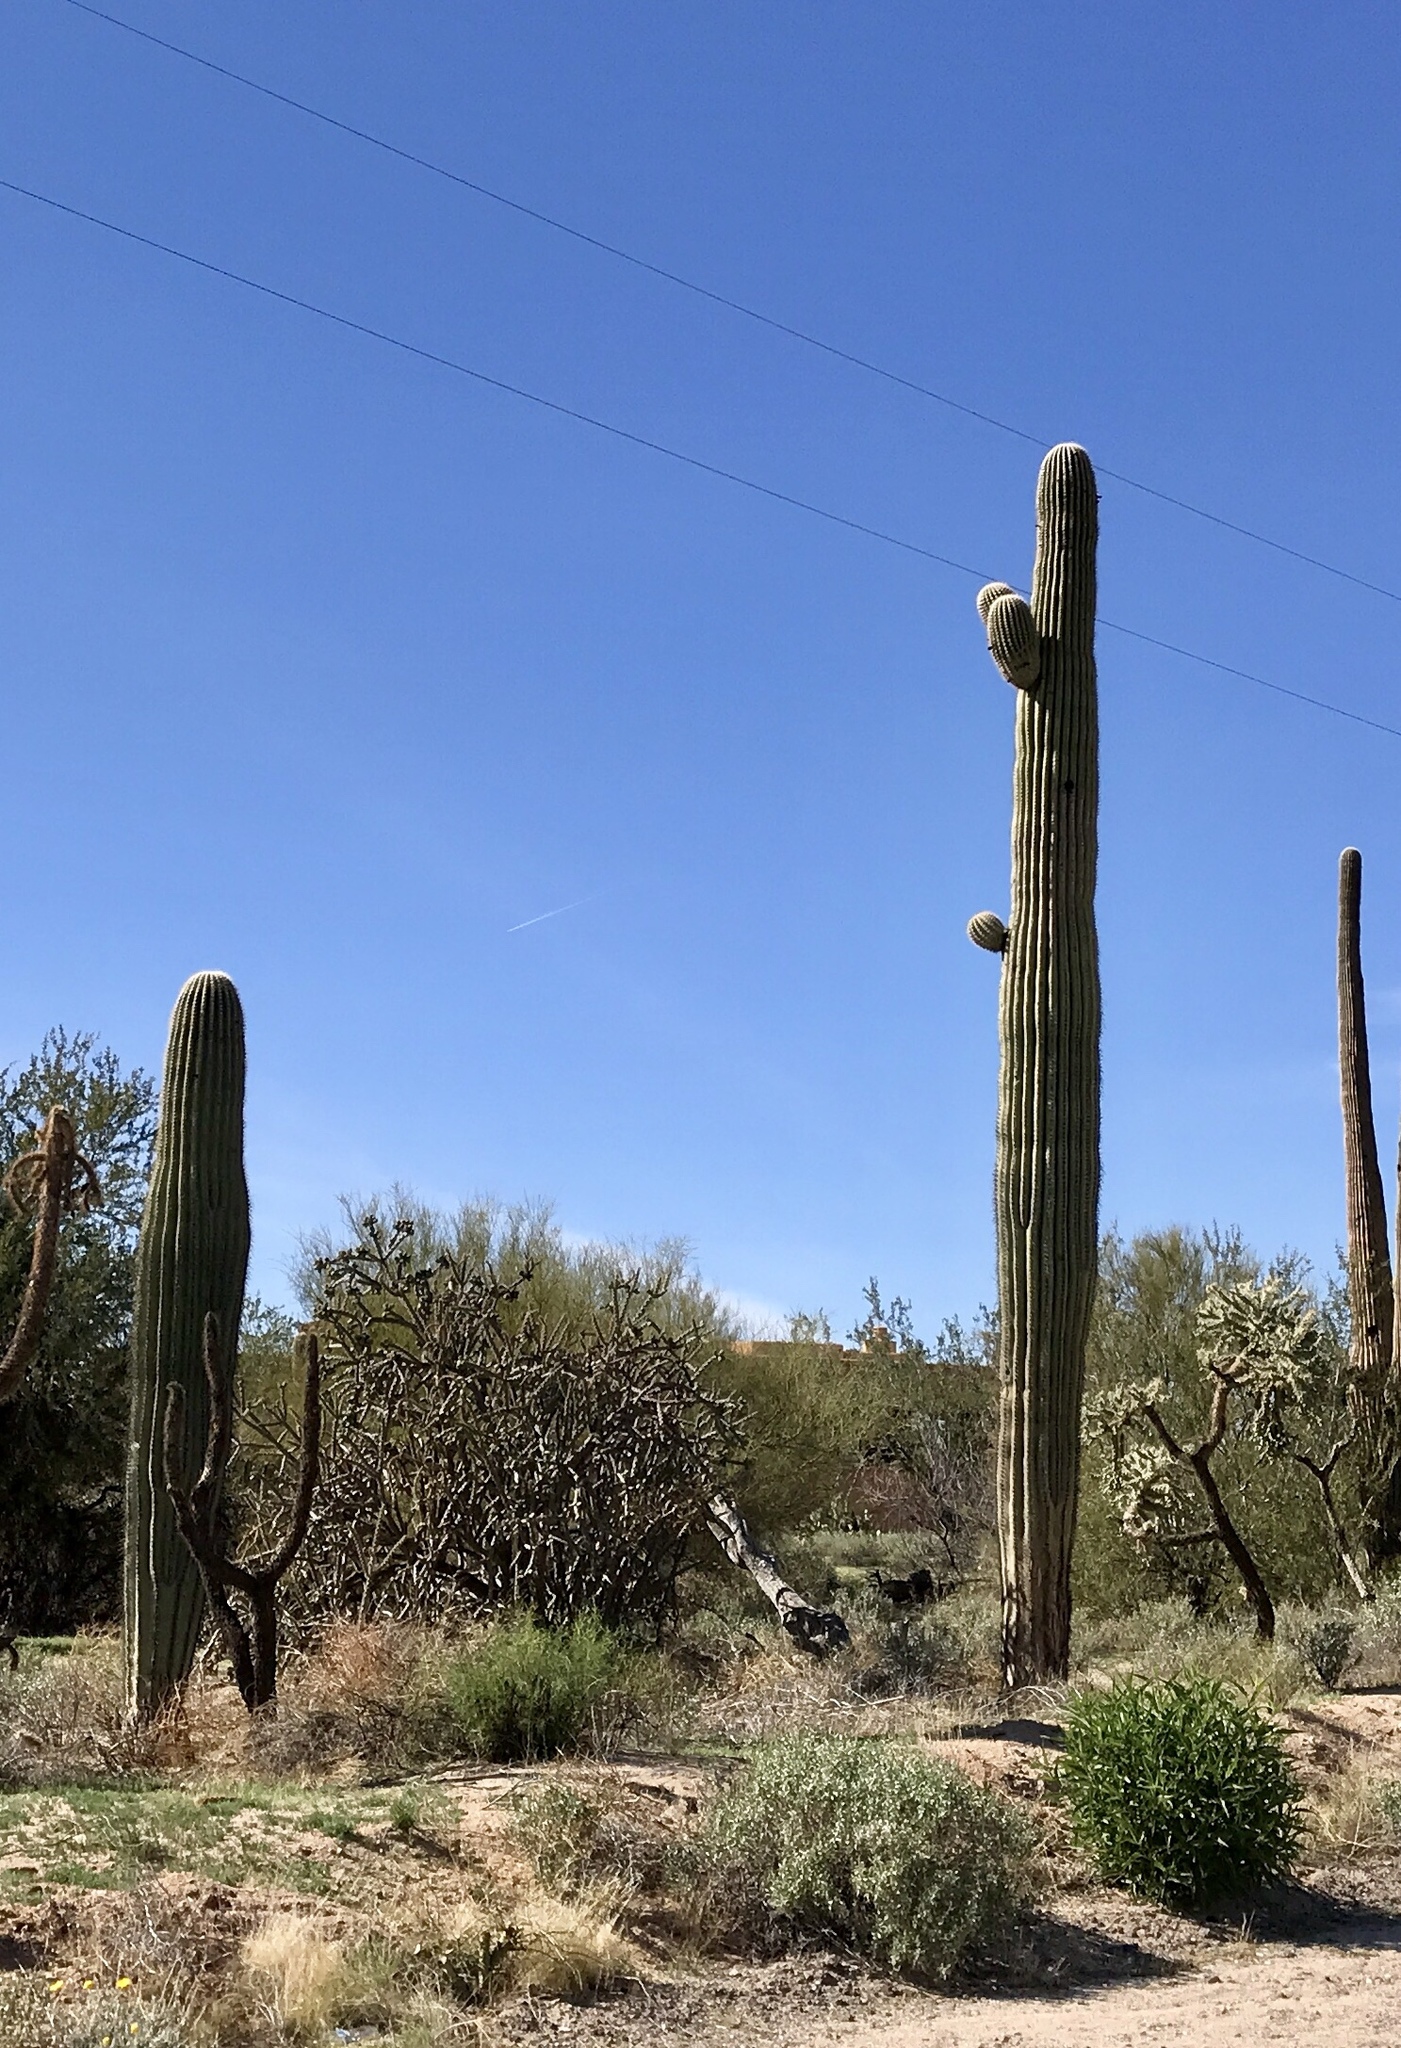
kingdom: Plantae
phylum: Tracheophyta
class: Magnoliopsida
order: Caryophyllales
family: Cactaceae
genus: Carnegiea
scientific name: Carnegiea gigantea
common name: Saguaro
